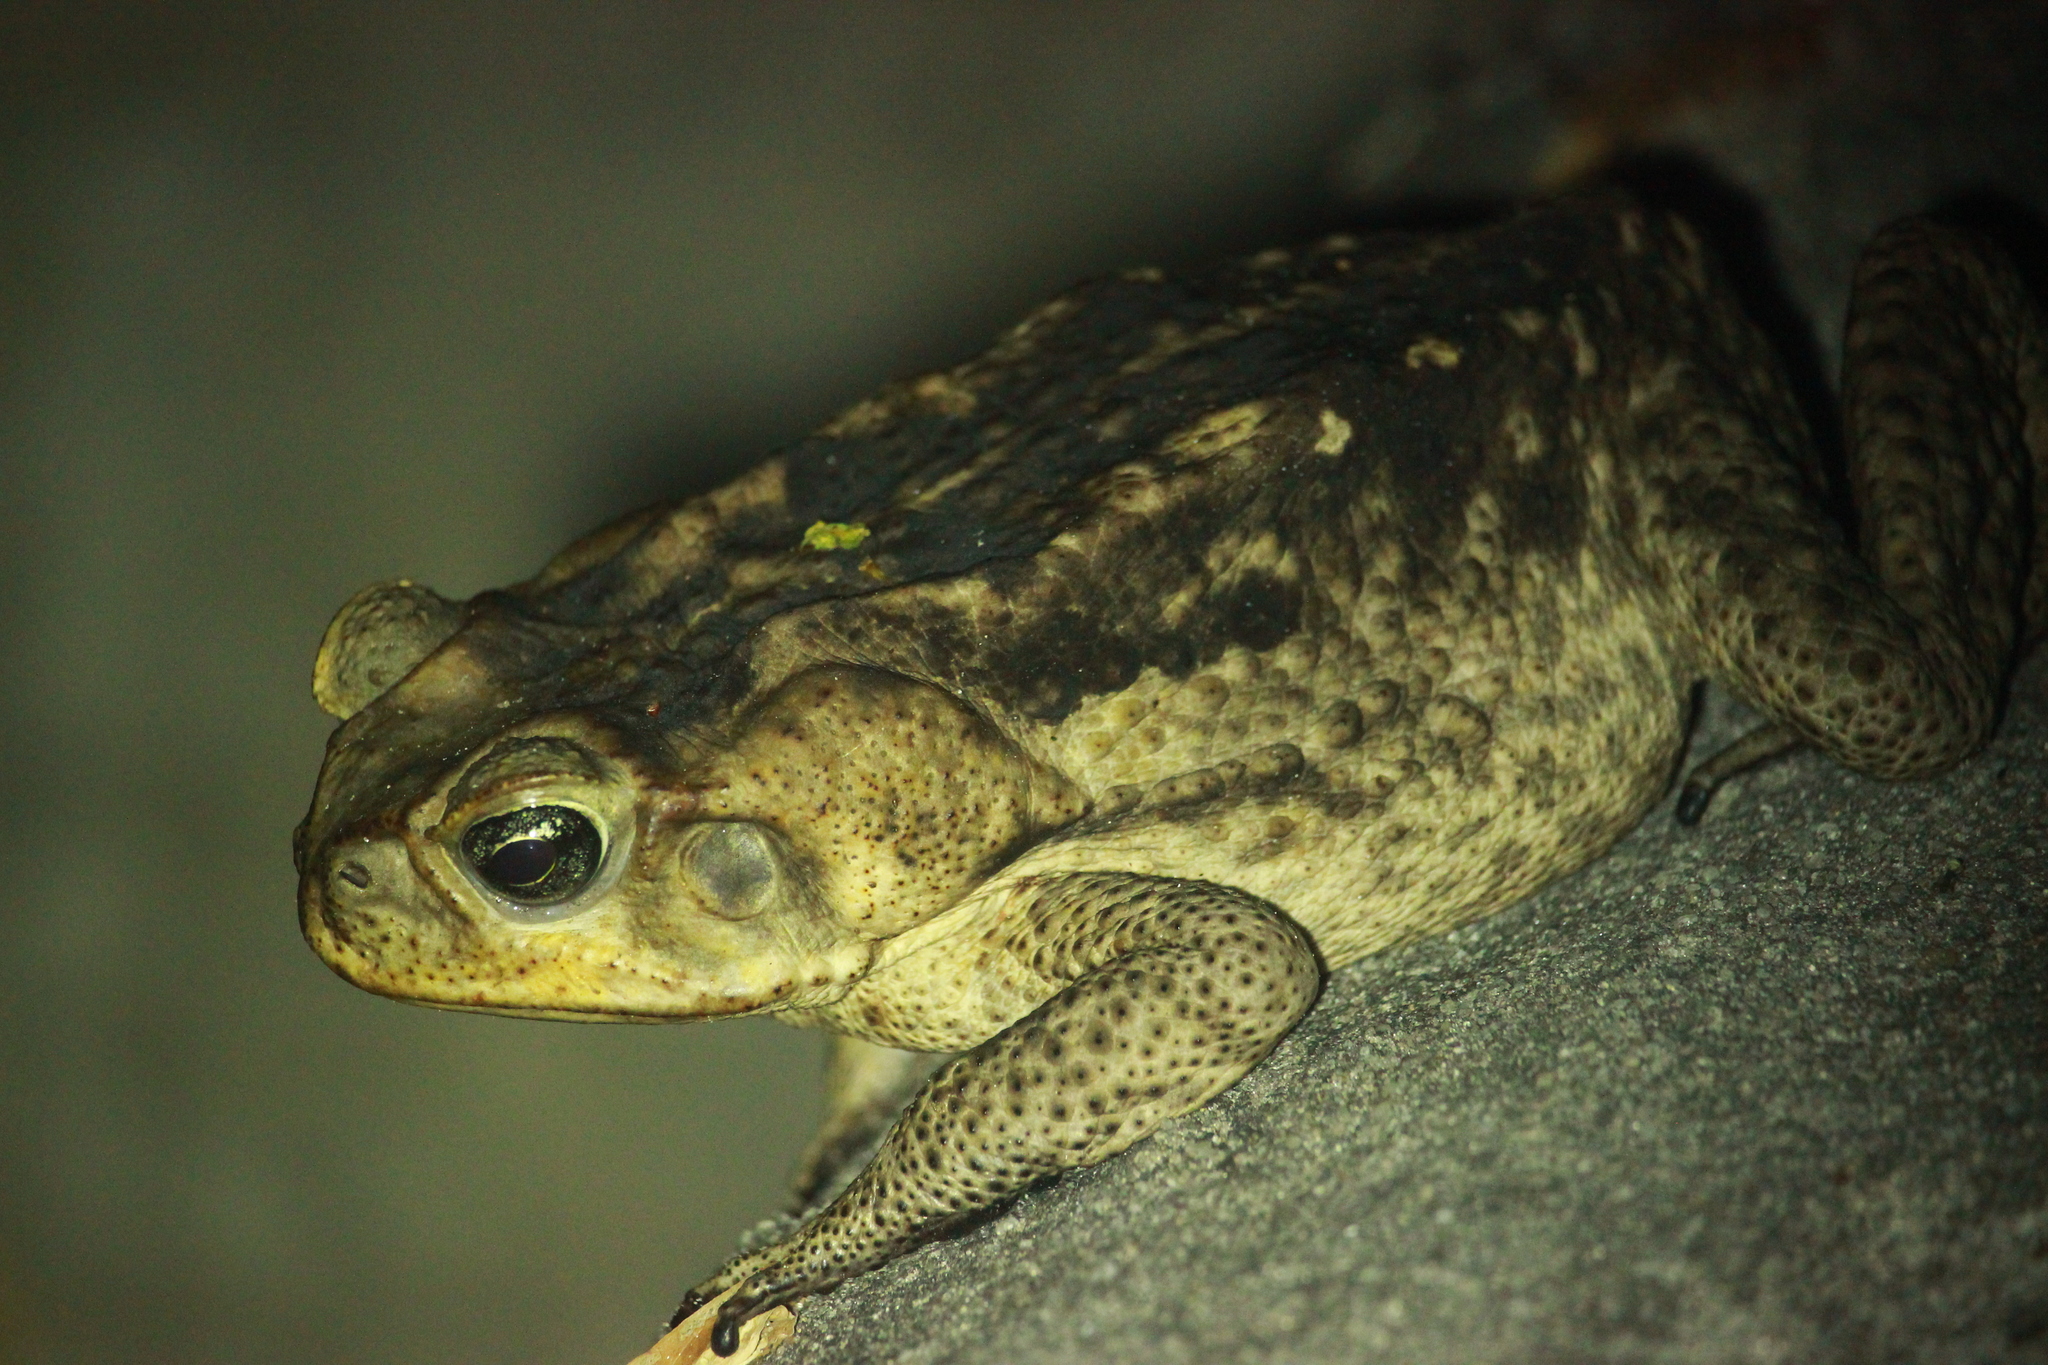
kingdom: Animalia
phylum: Chordata
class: Amphibia
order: Anura
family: Bufonidae
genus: Rhinella
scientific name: Rhinella marina
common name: Cane toad
